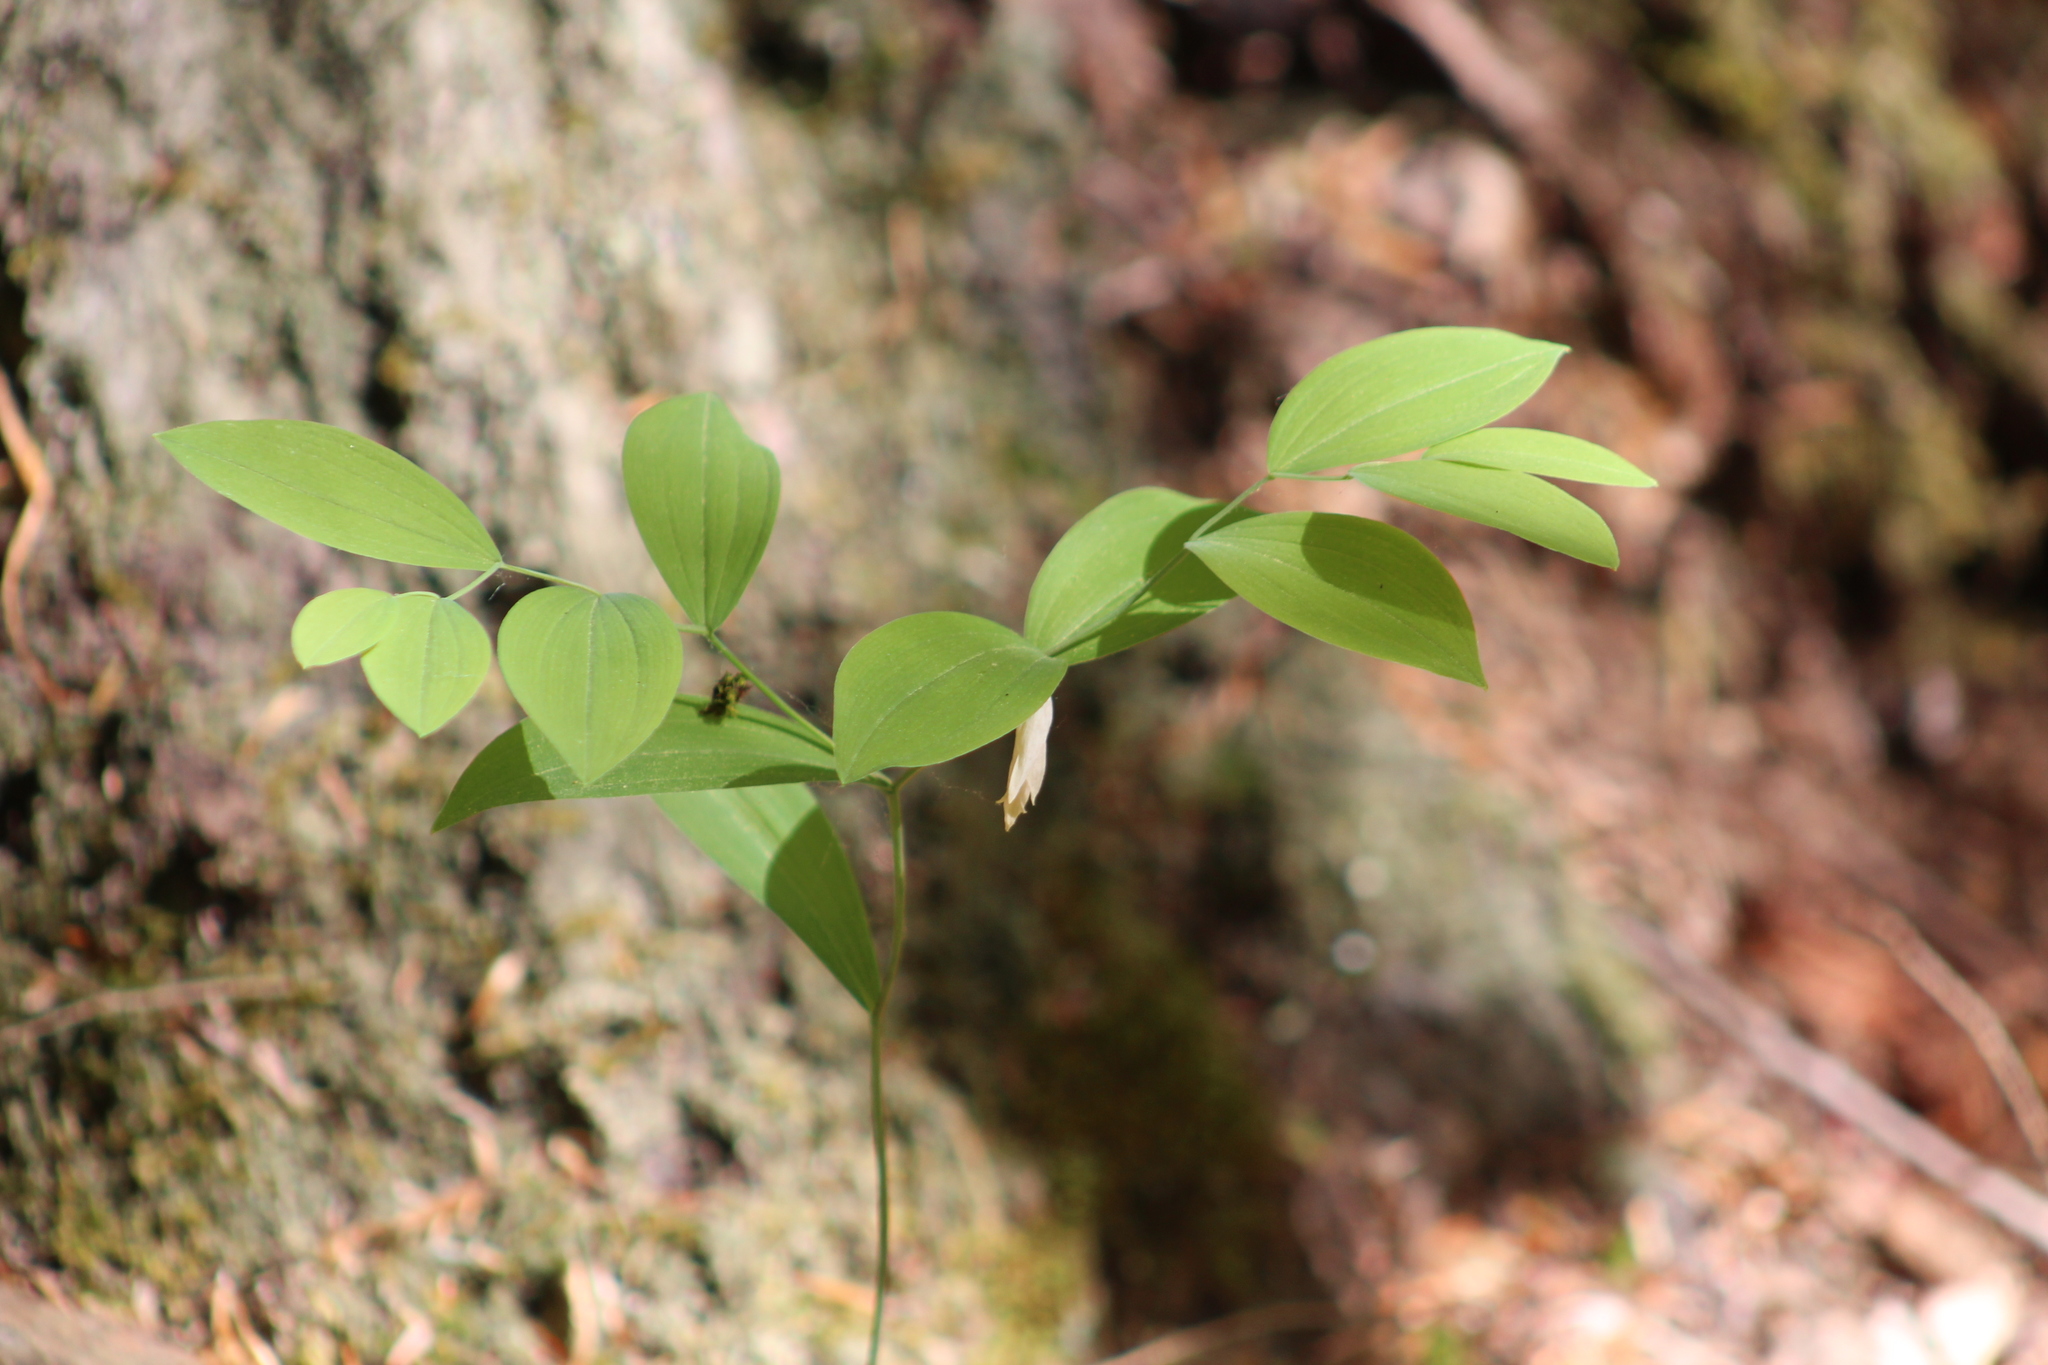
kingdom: Plantae
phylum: Tracheophyta
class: Liliopsida
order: Liliales
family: Colchicaceae
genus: Uvularia
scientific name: Uvularia sessilifolia
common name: Straw-lily
